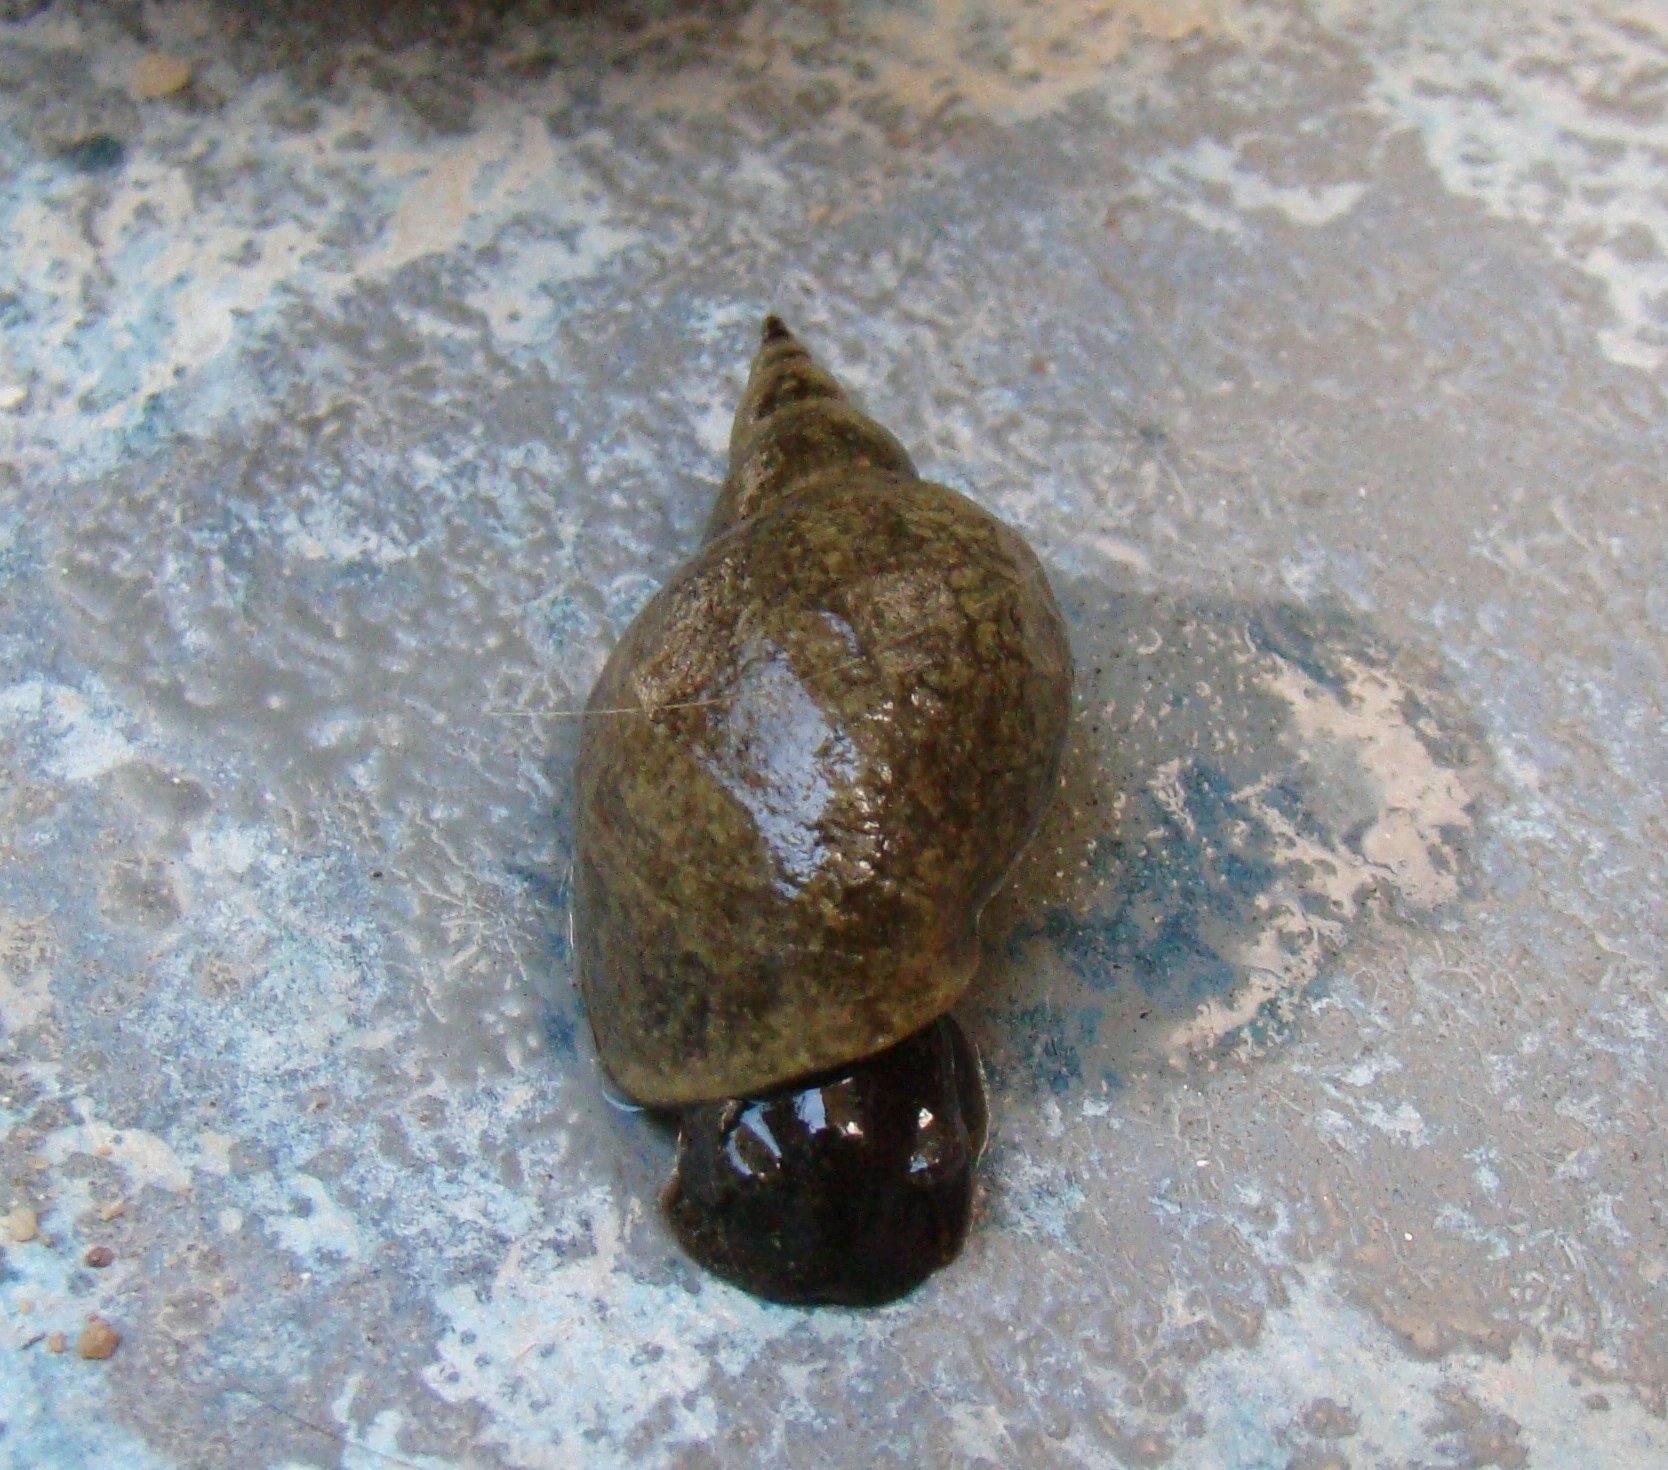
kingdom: Animalia
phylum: Mollusca
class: Gastropoda
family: Lymnaeidae
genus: Lymnaea
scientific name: Lymnaea stagnalis
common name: Great pond snail
